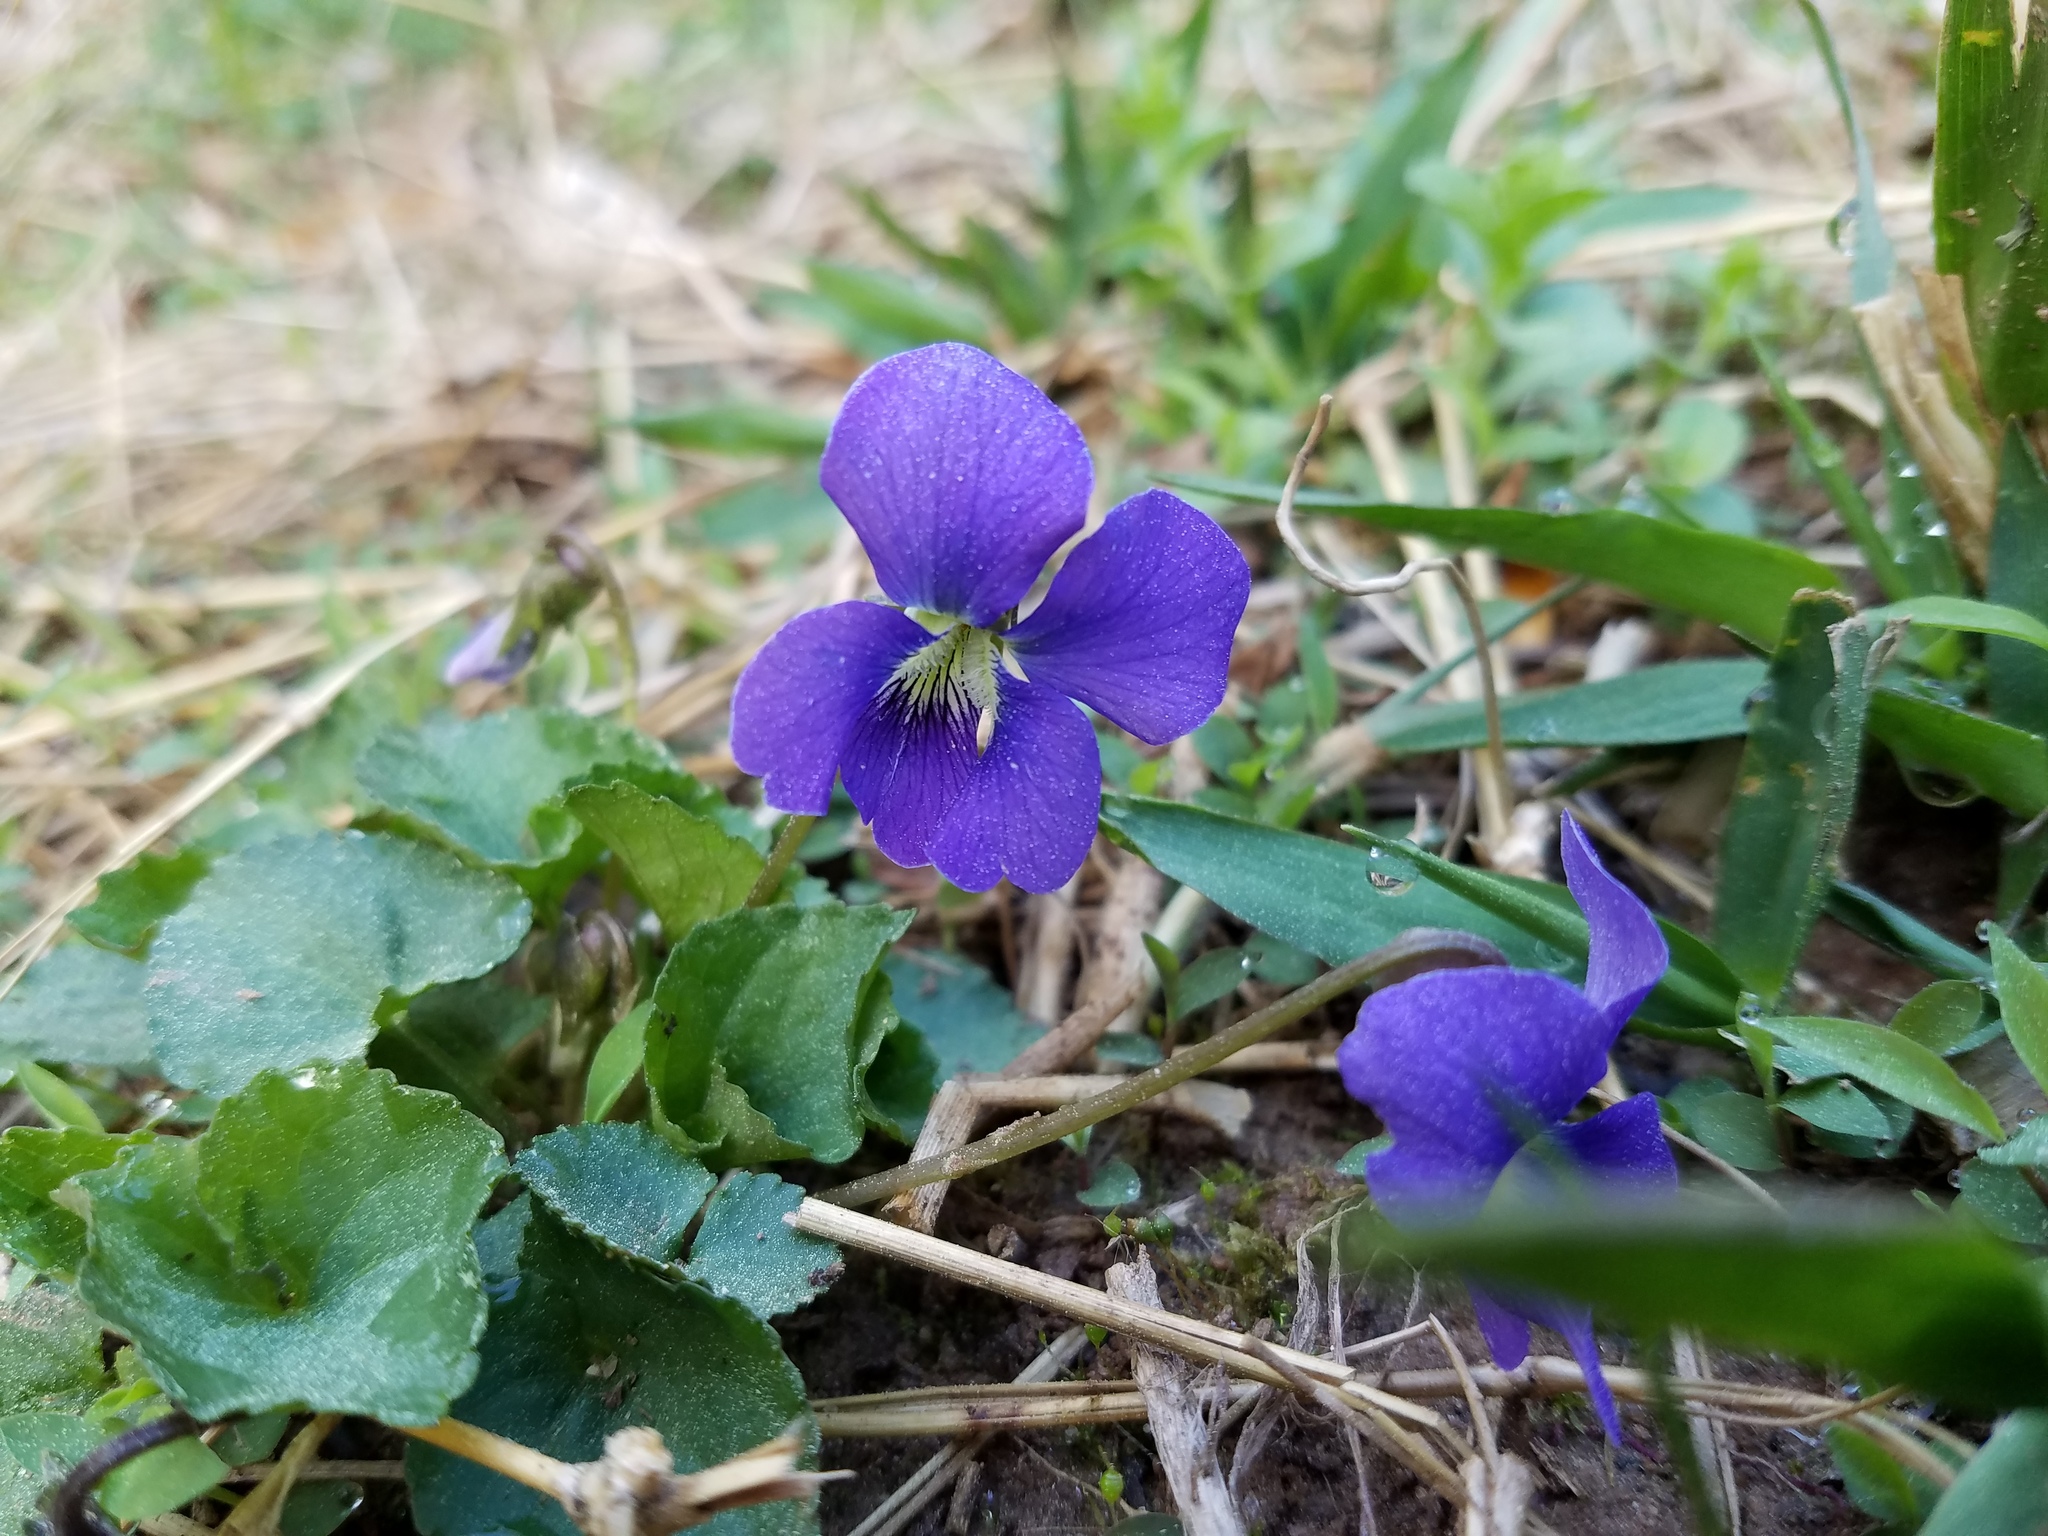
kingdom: Plantae
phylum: Tracheophyta
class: Magnoliopsida
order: Malpighiales
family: Violaceae
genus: Viola
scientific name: Viola sororia
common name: Dooryard violet
